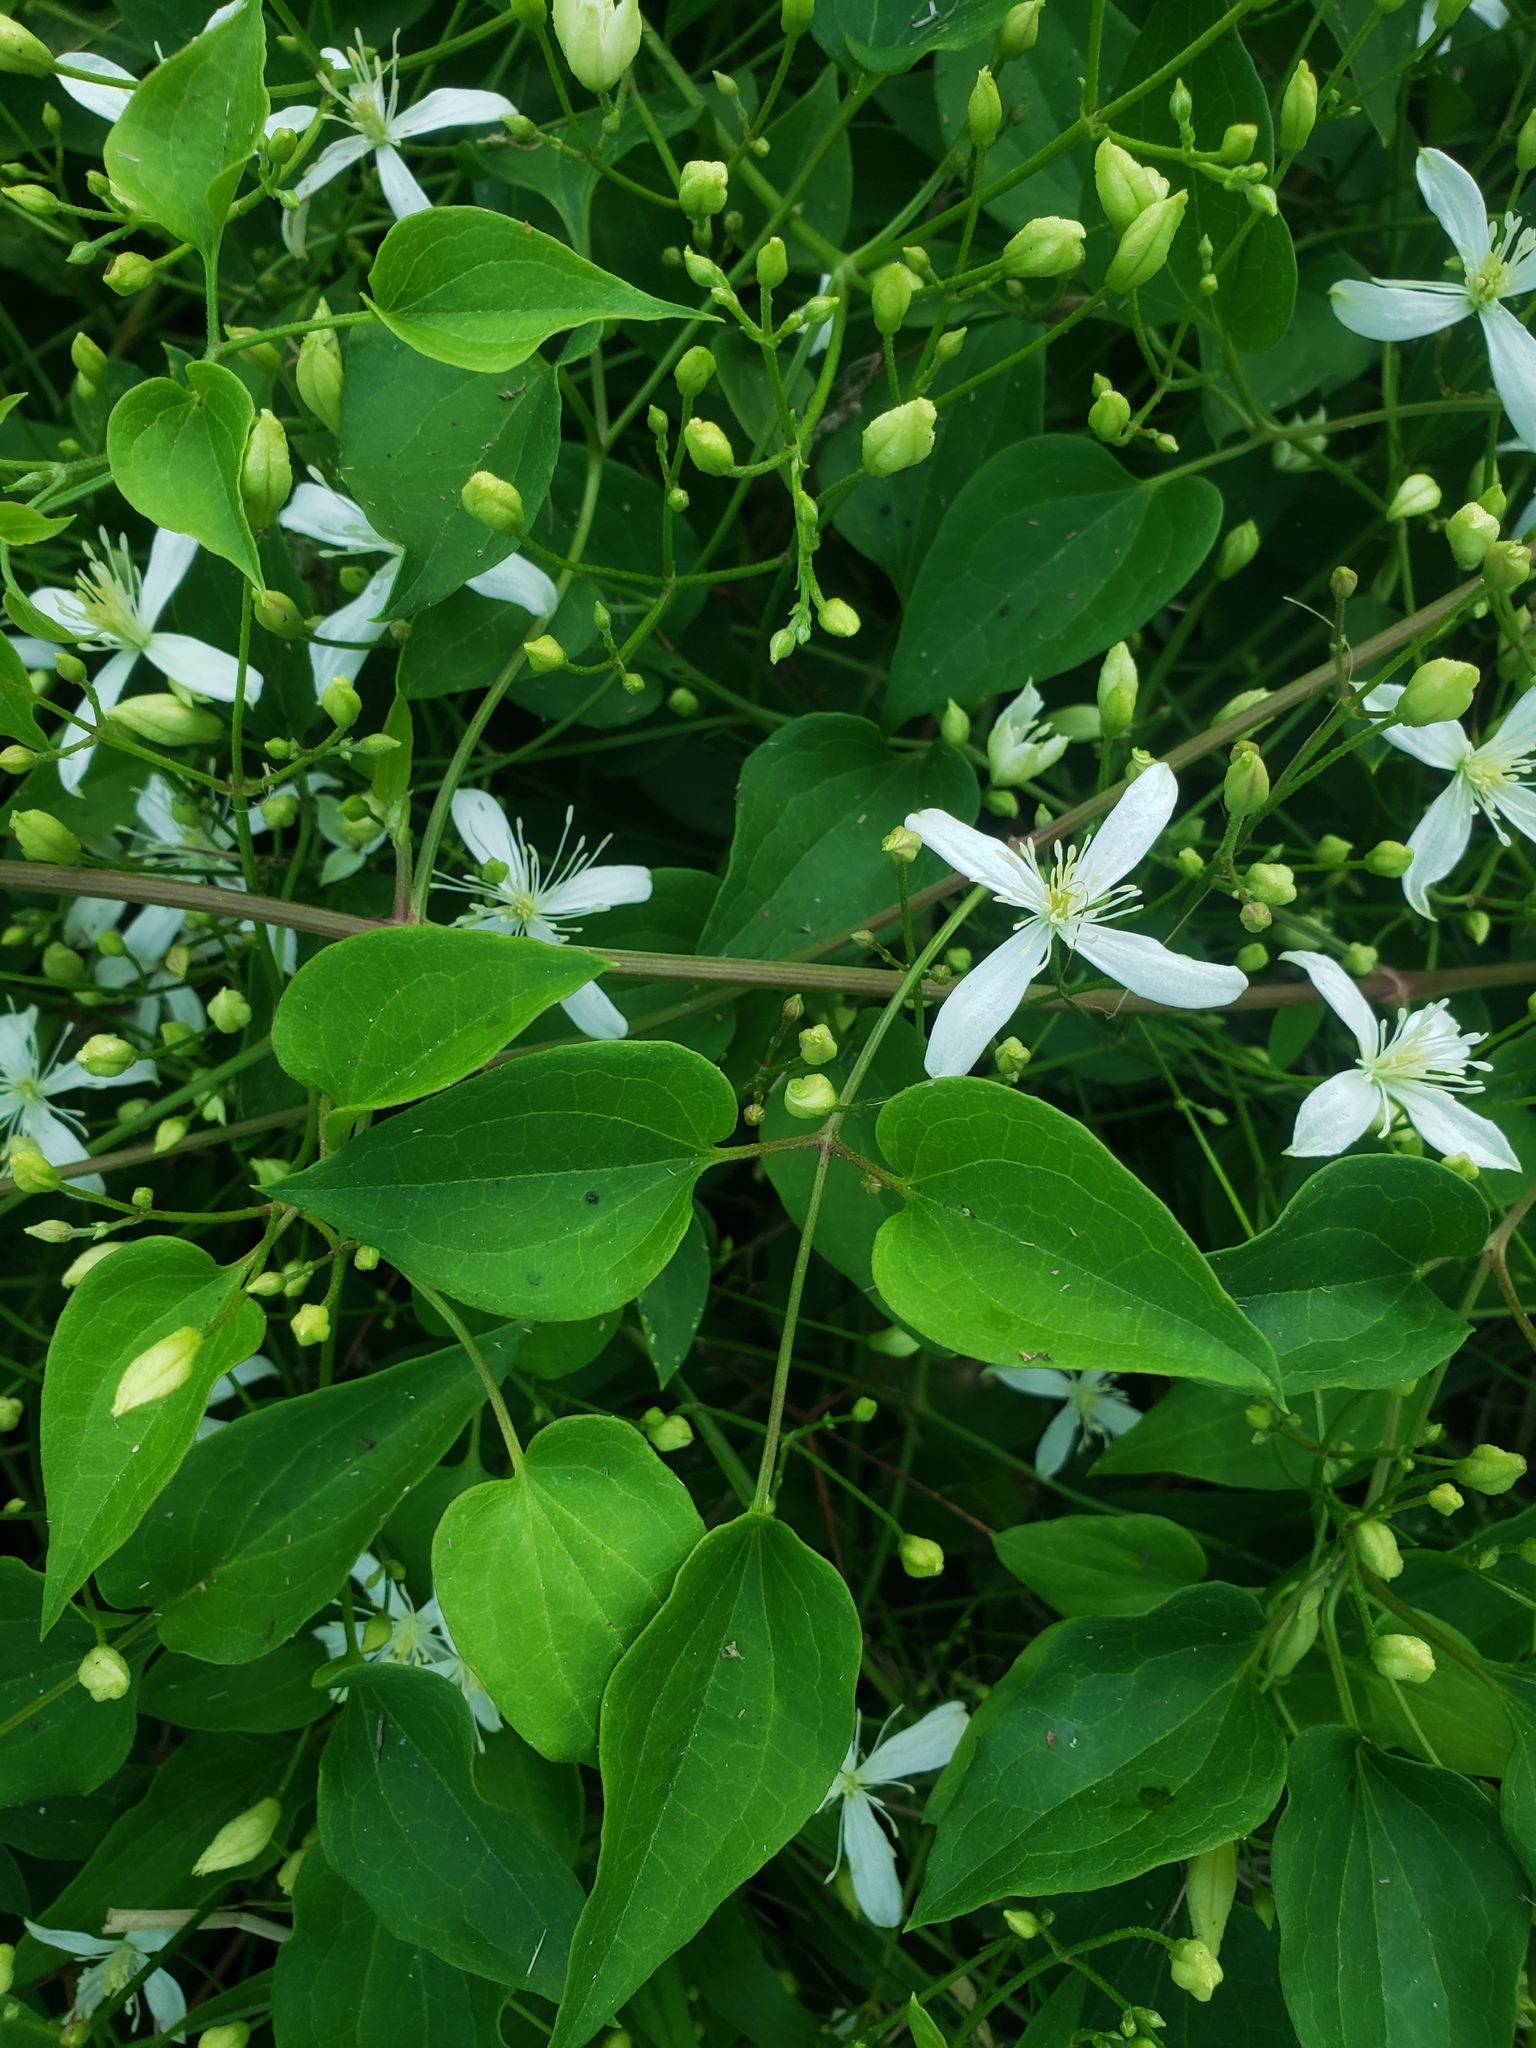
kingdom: Plantae
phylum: Tracheophyta
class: Magnoliopsida
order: Ranunculales
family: Ranunculaceae
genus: Clematis
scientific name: Clematis terniflora
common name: Sweet autumn clematis
